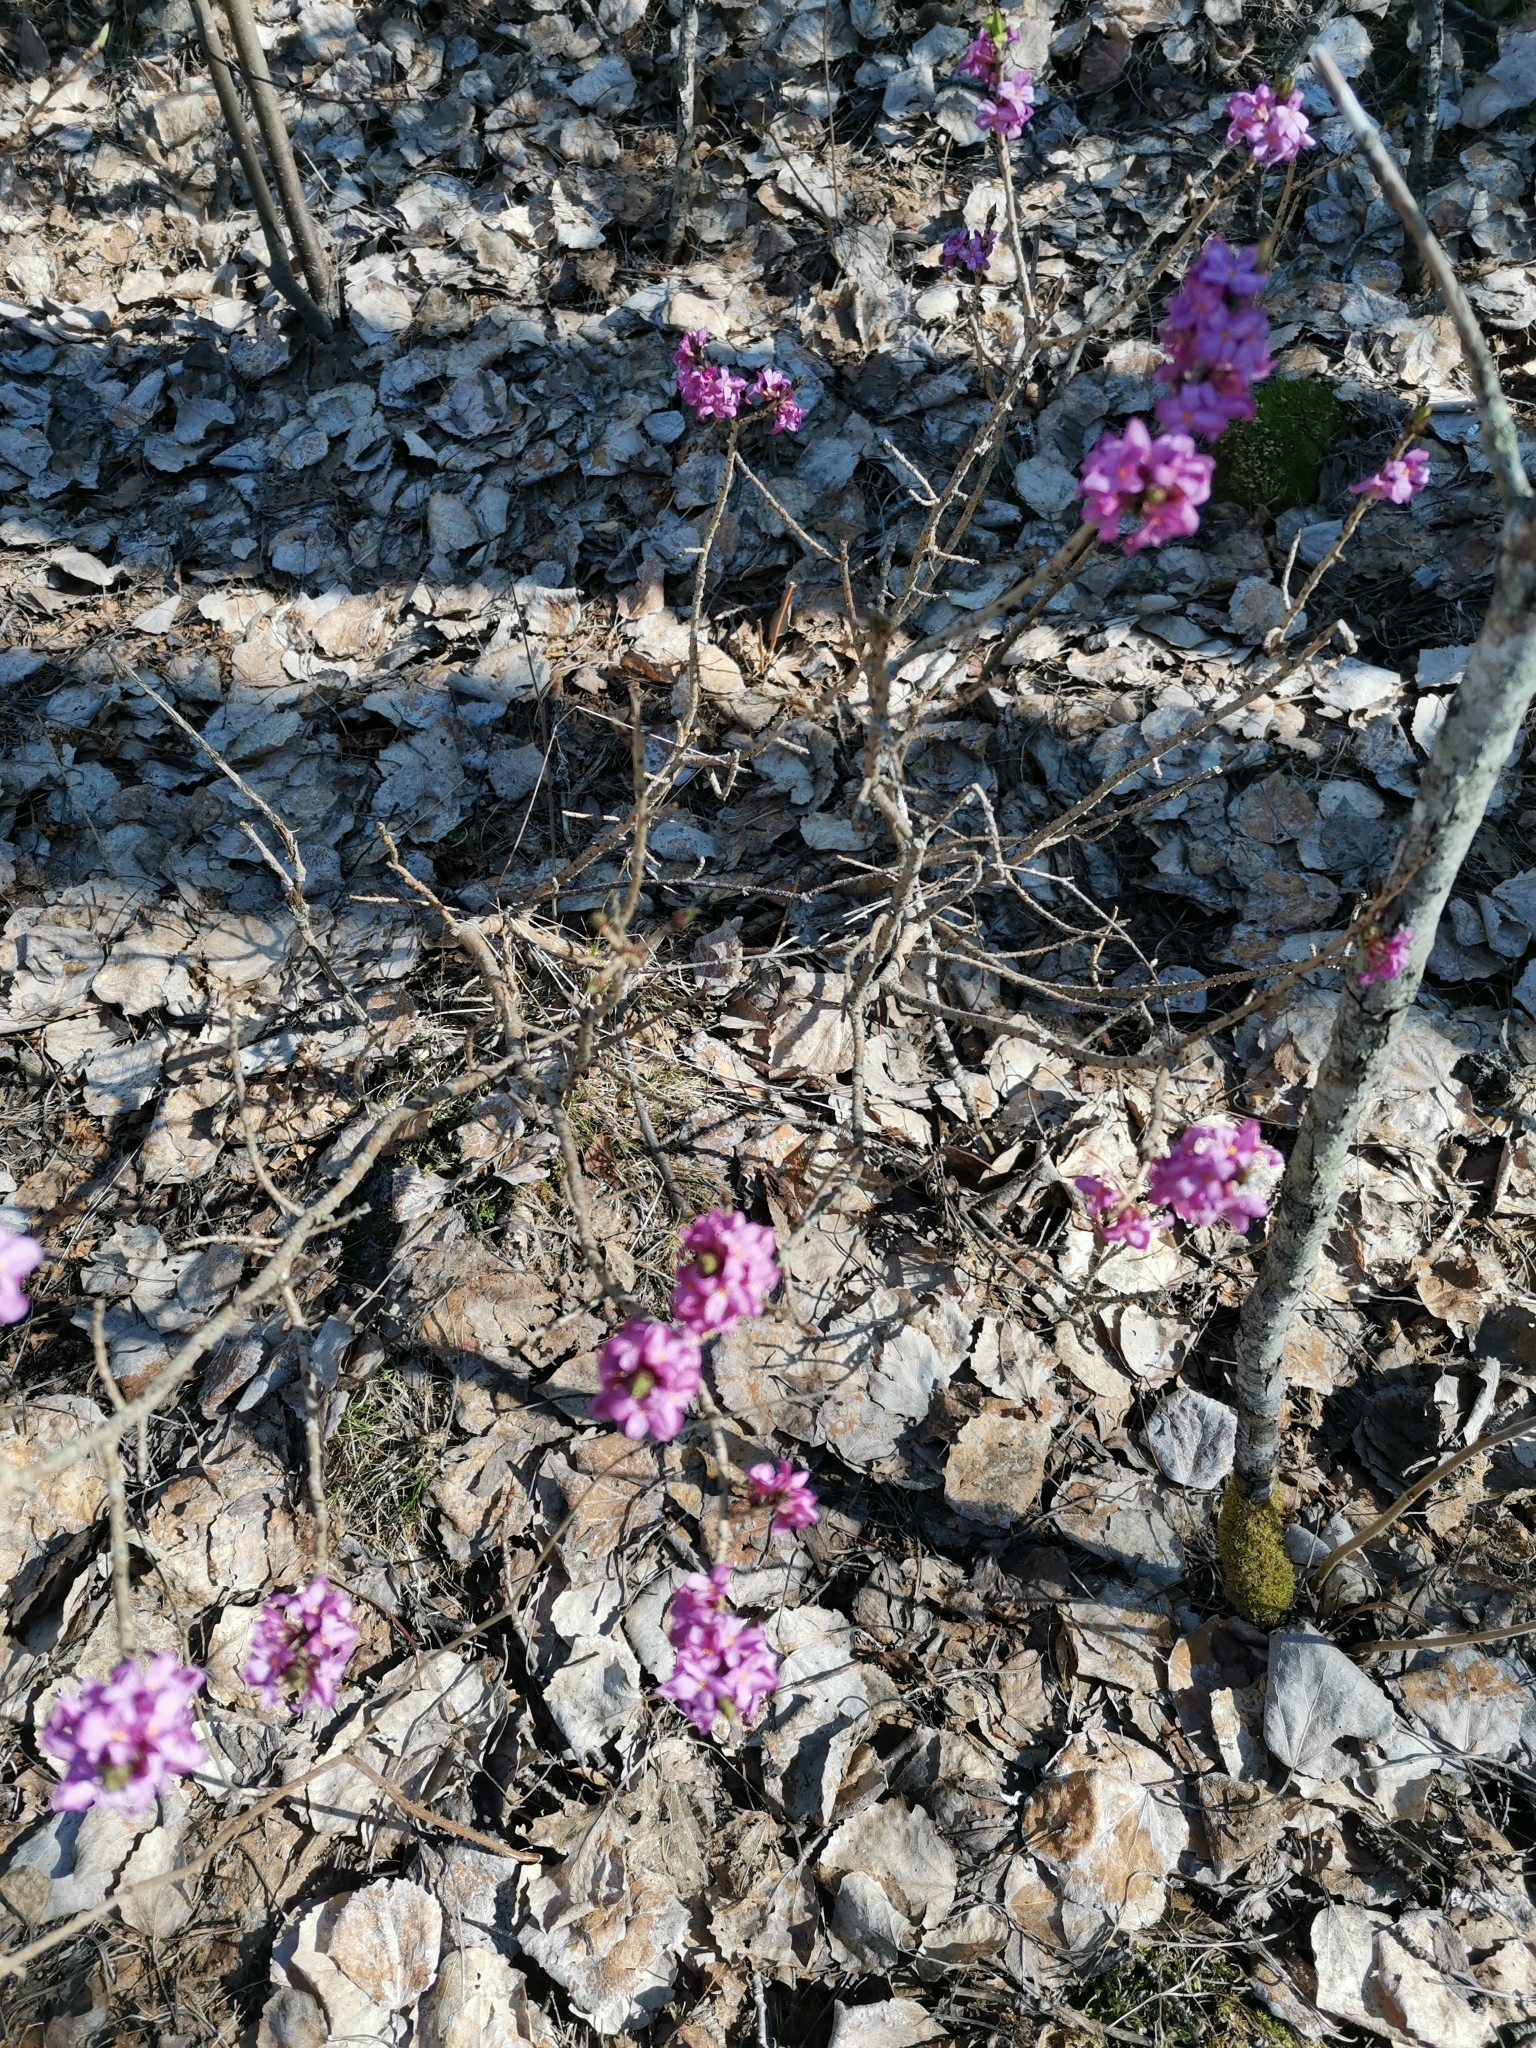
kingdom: Plantae
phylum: Tracheophyta
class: Magnoliopsida
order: Malvales
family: Thymelaeaceae
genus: Daphne
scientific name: Daphne mezereum
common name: Mezereon
